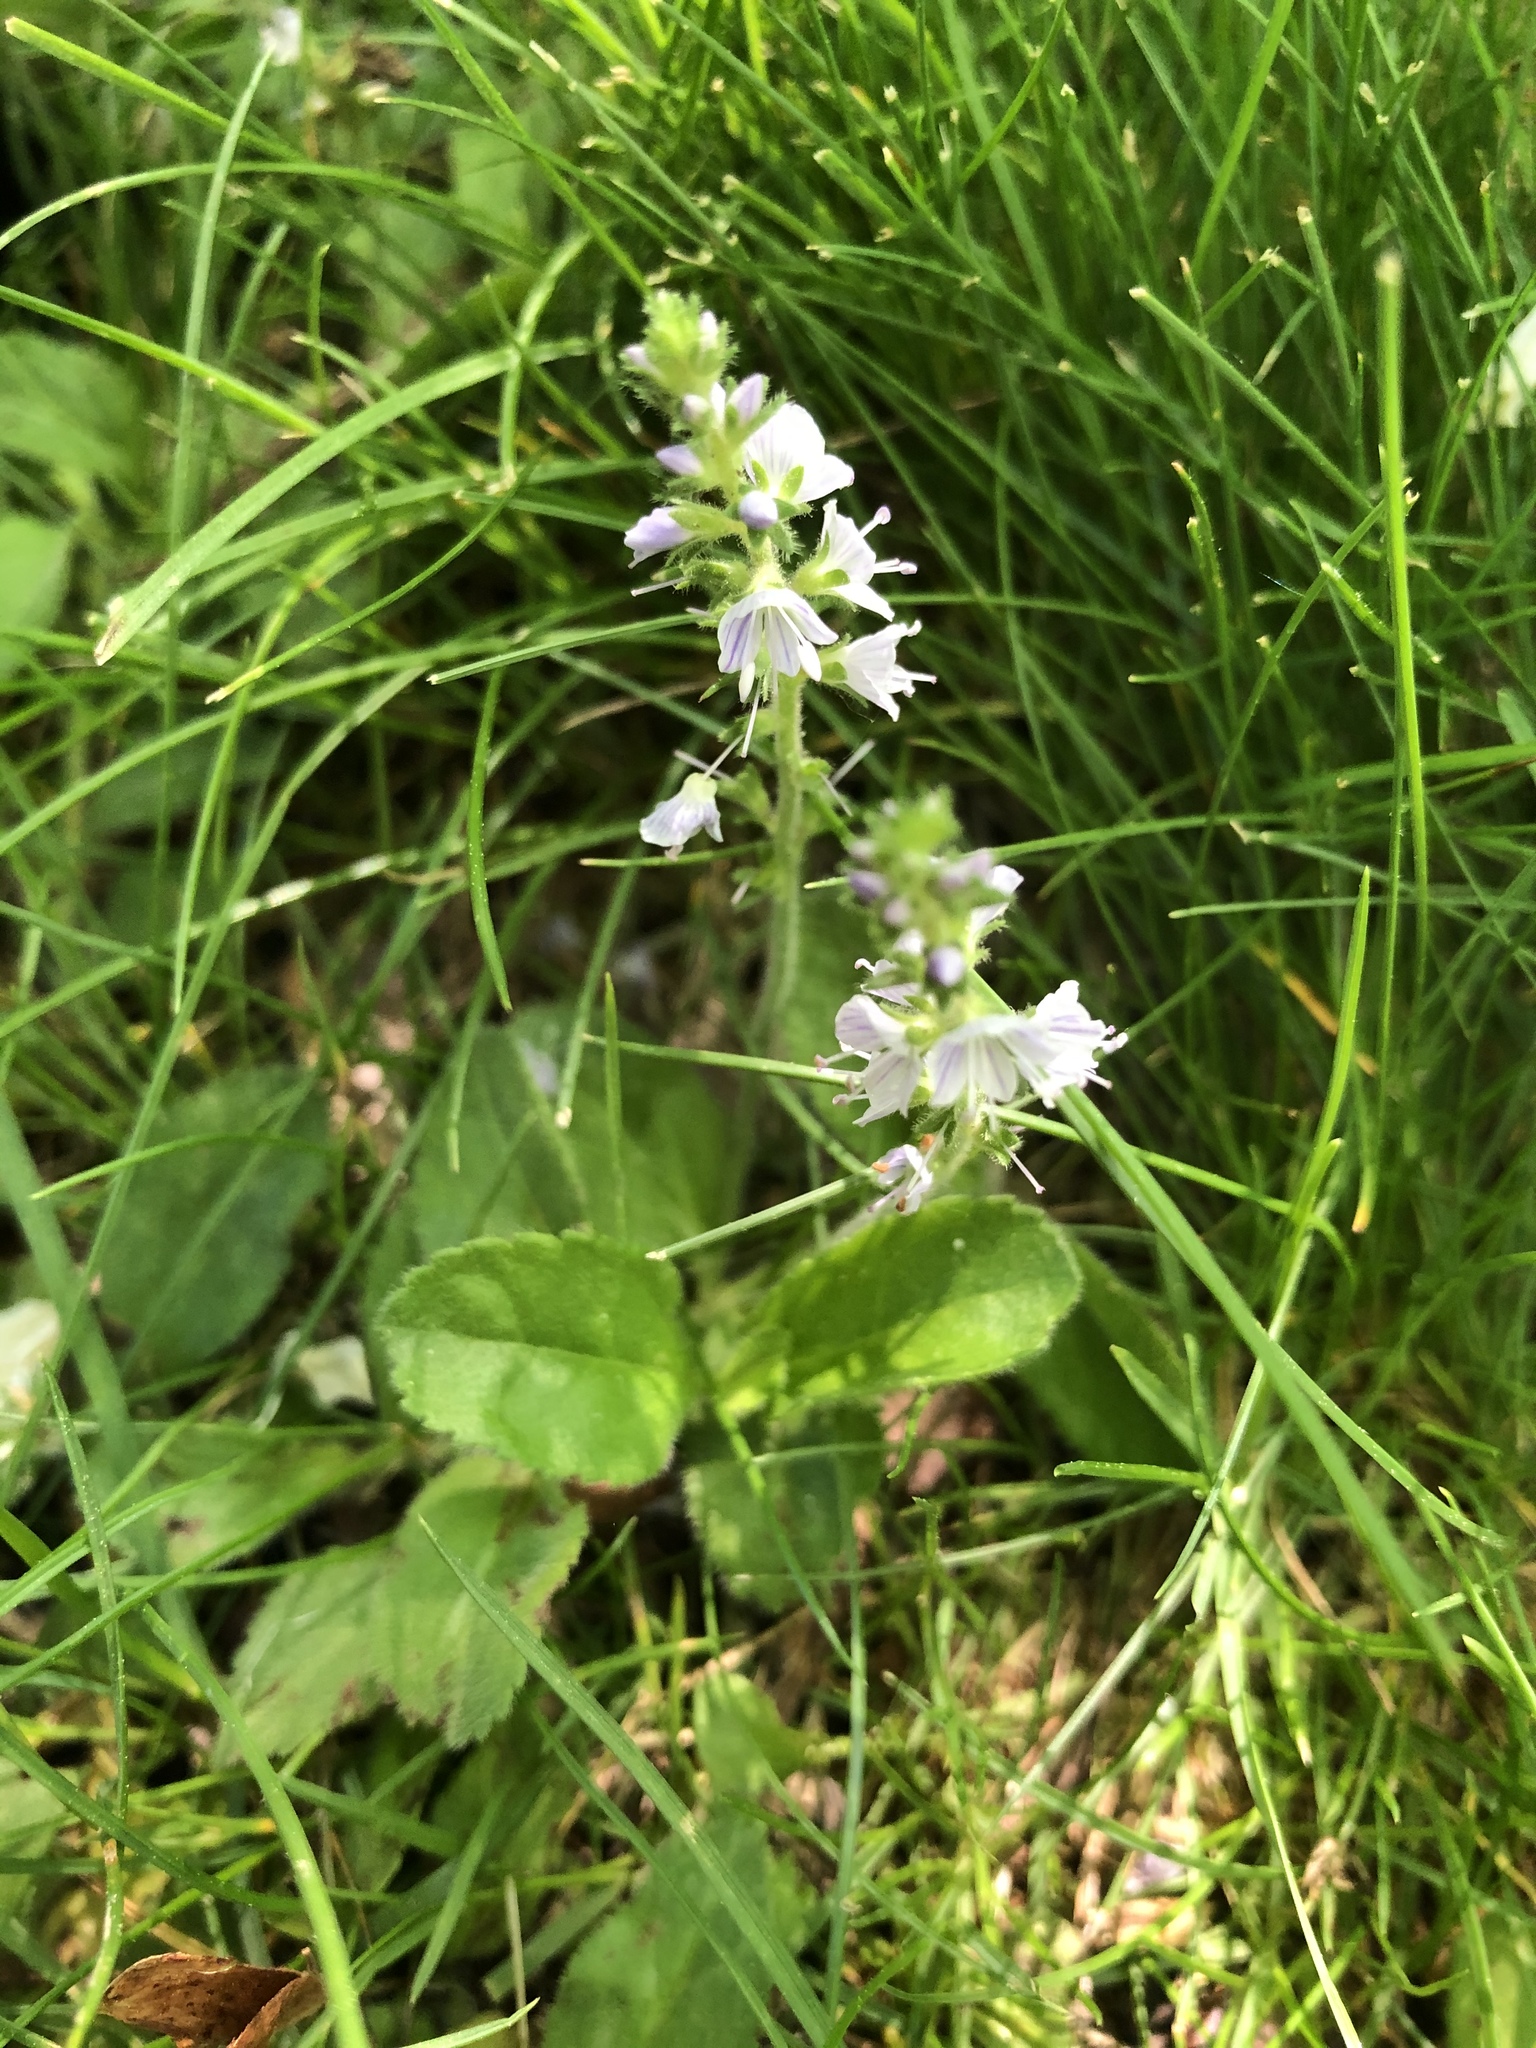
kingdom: Plantae
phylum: Tracheophyta
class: Magnoliopsida
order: Lamiales
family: Plantaginaceae
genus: Veronica
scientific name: Veronica officinalis
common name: Common speedwell
